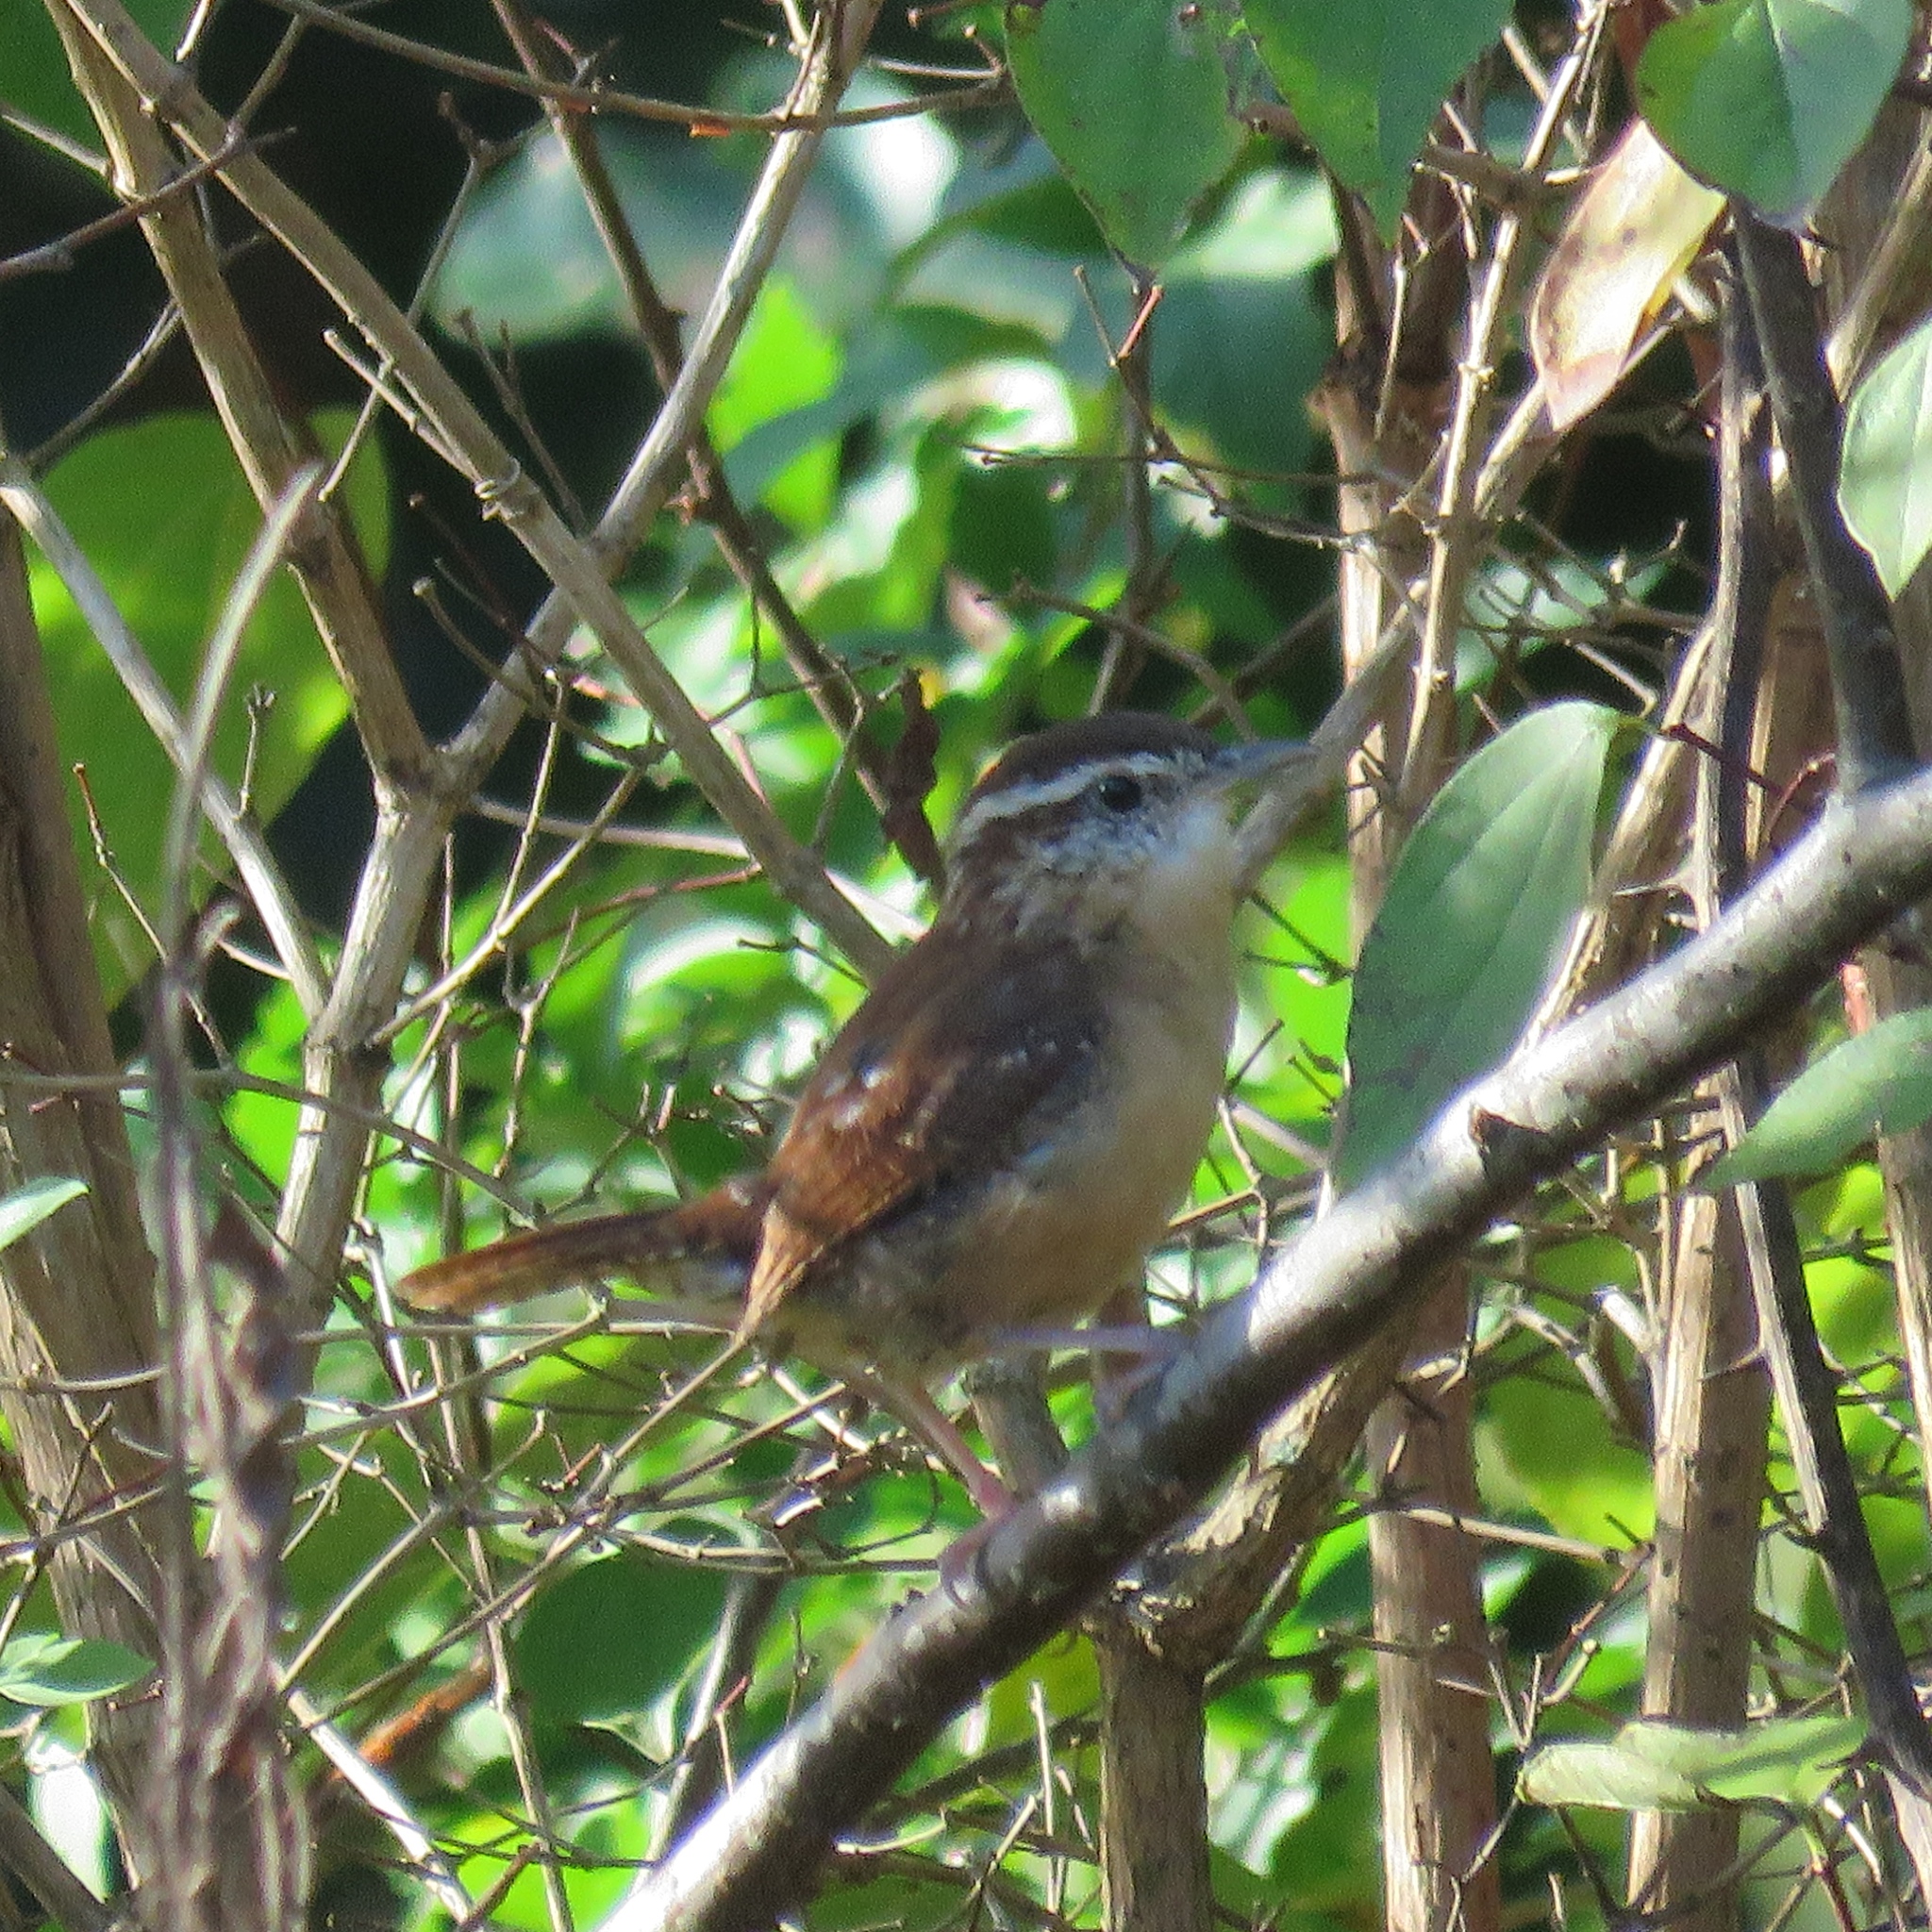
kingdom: Animalia
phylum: Chordata
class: Aves
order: Passeriformes
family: Troglodytidae
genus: Thryothorus
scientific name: Thryothorus ludovicianus
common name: Carolina wren
